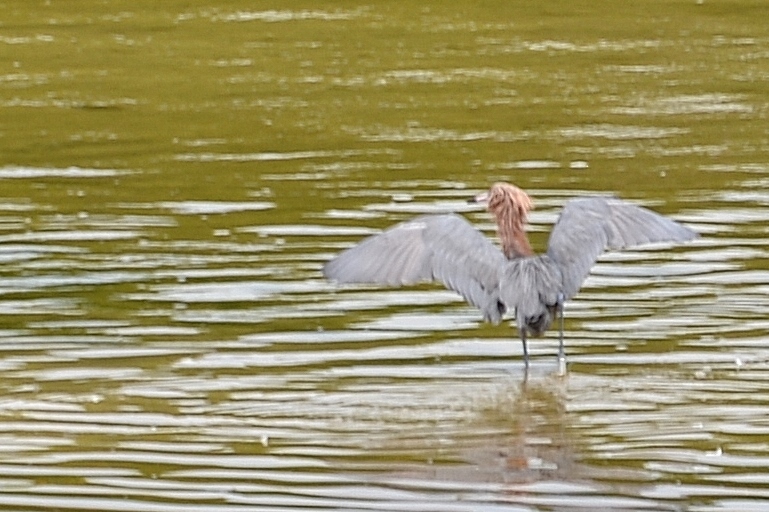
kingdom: Animalia
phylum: Chordata
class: Aves
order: Pelecaniformes
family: Ardeidae
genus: Egretta
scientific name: Egretta rufescens
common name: Reddish egret
